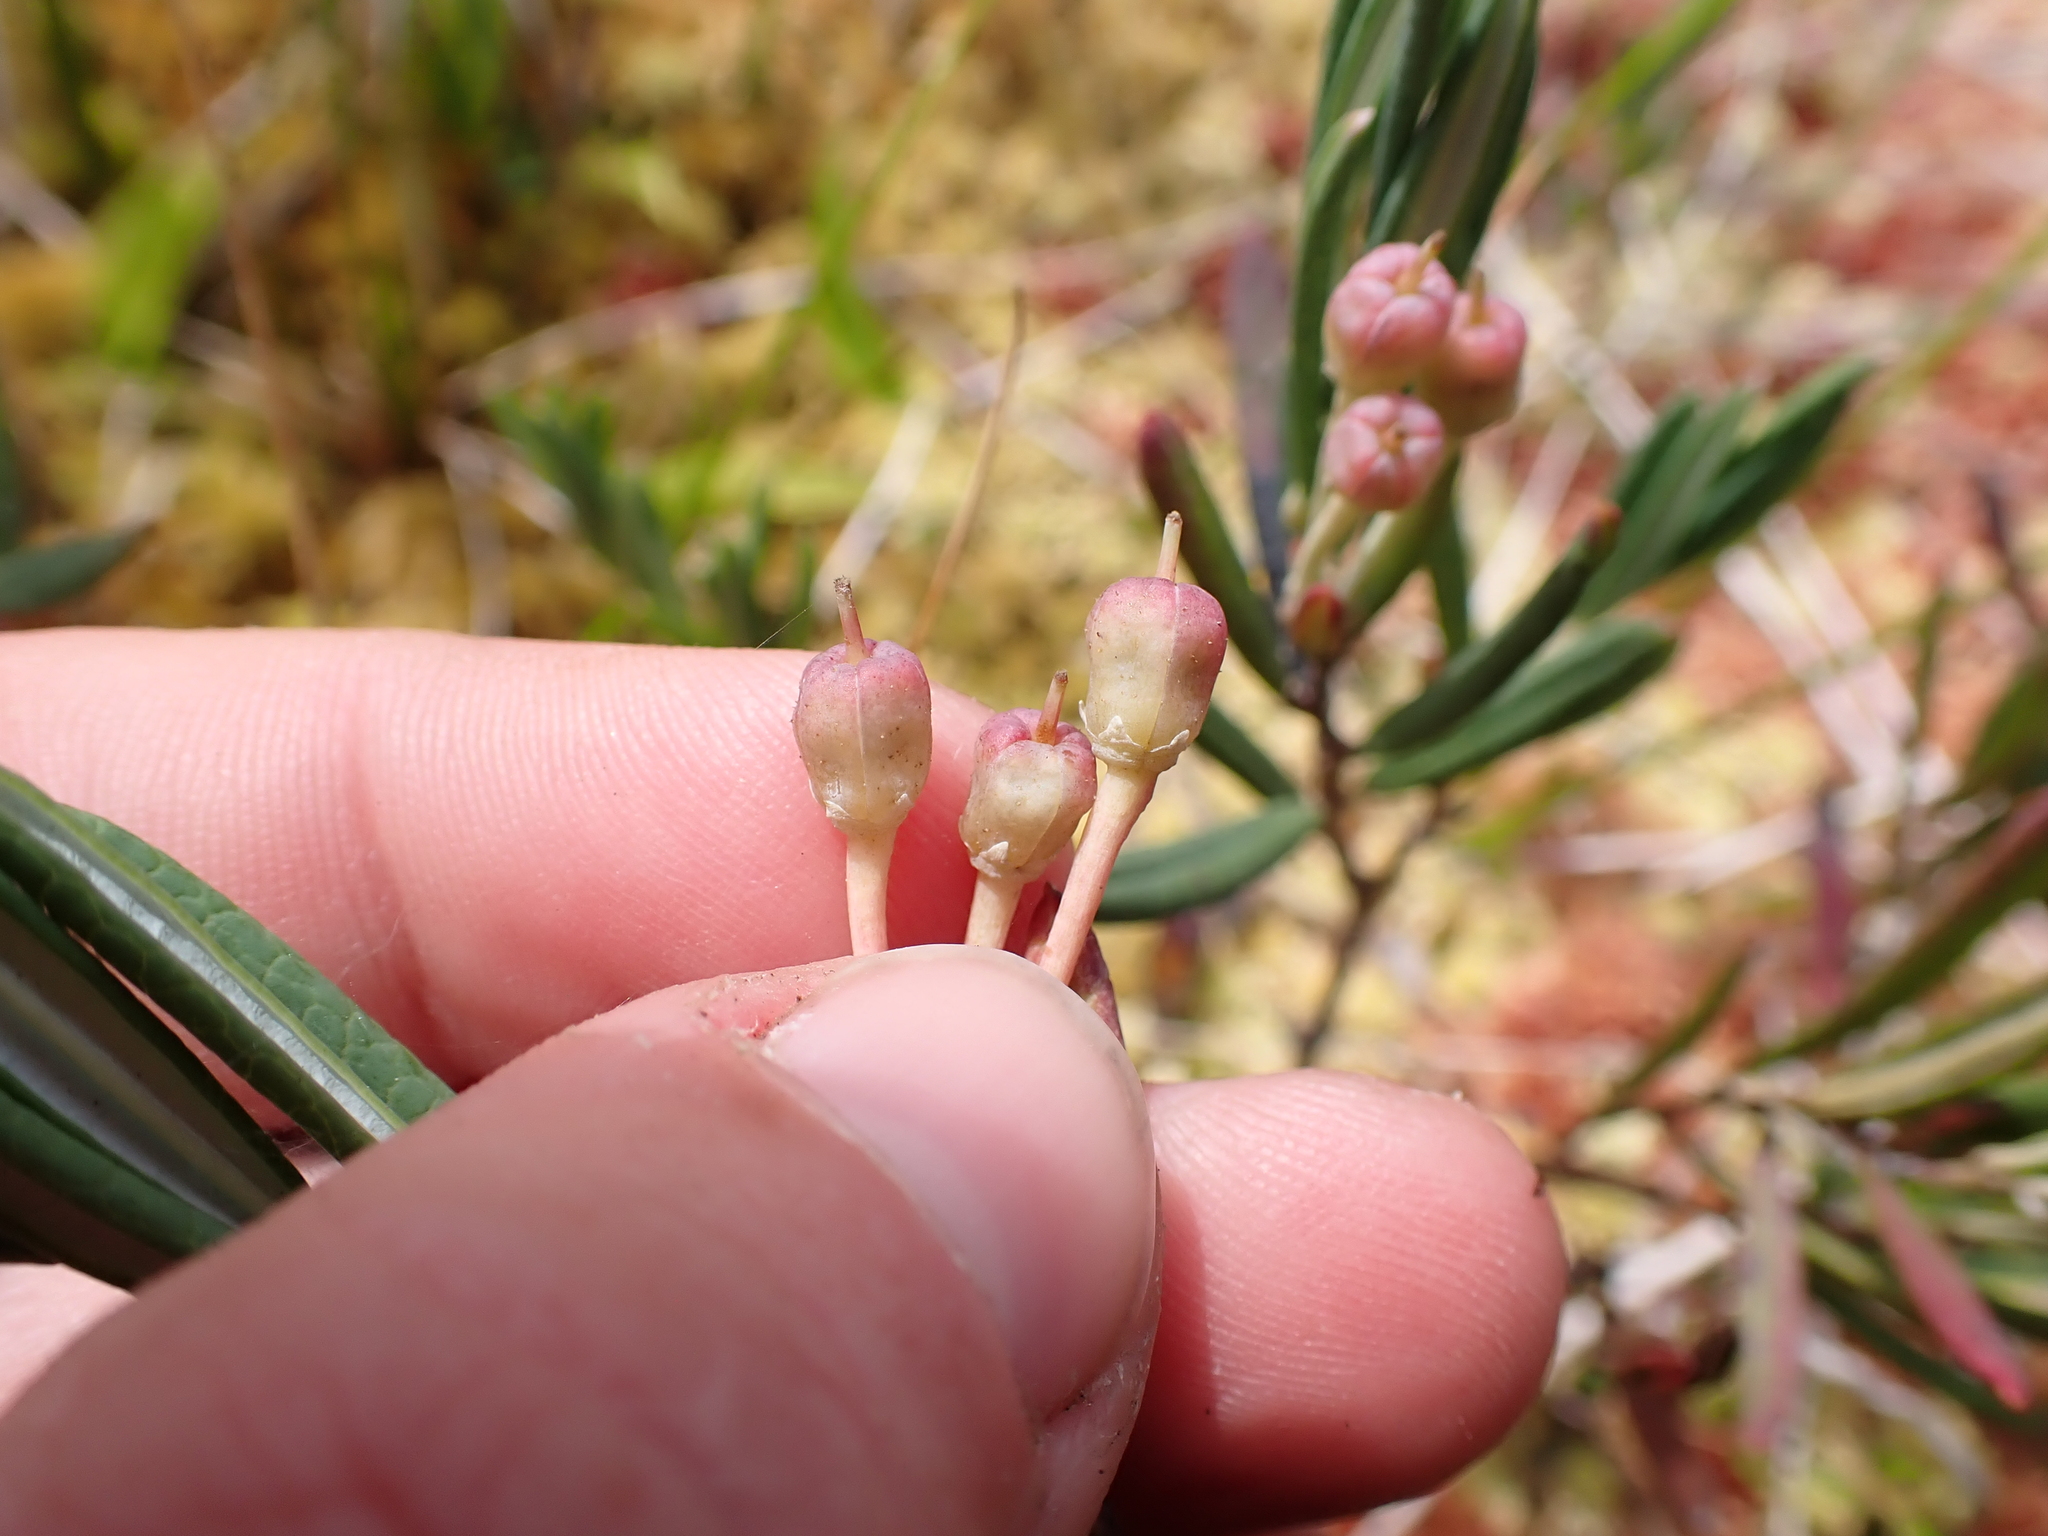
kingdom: Plantae
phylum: Tracheophyta
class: Magnoliopsida
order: Ericales
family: Ericaceae
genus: Andromeda
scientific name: Andromeda polifolia
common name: Bog-rosemary
